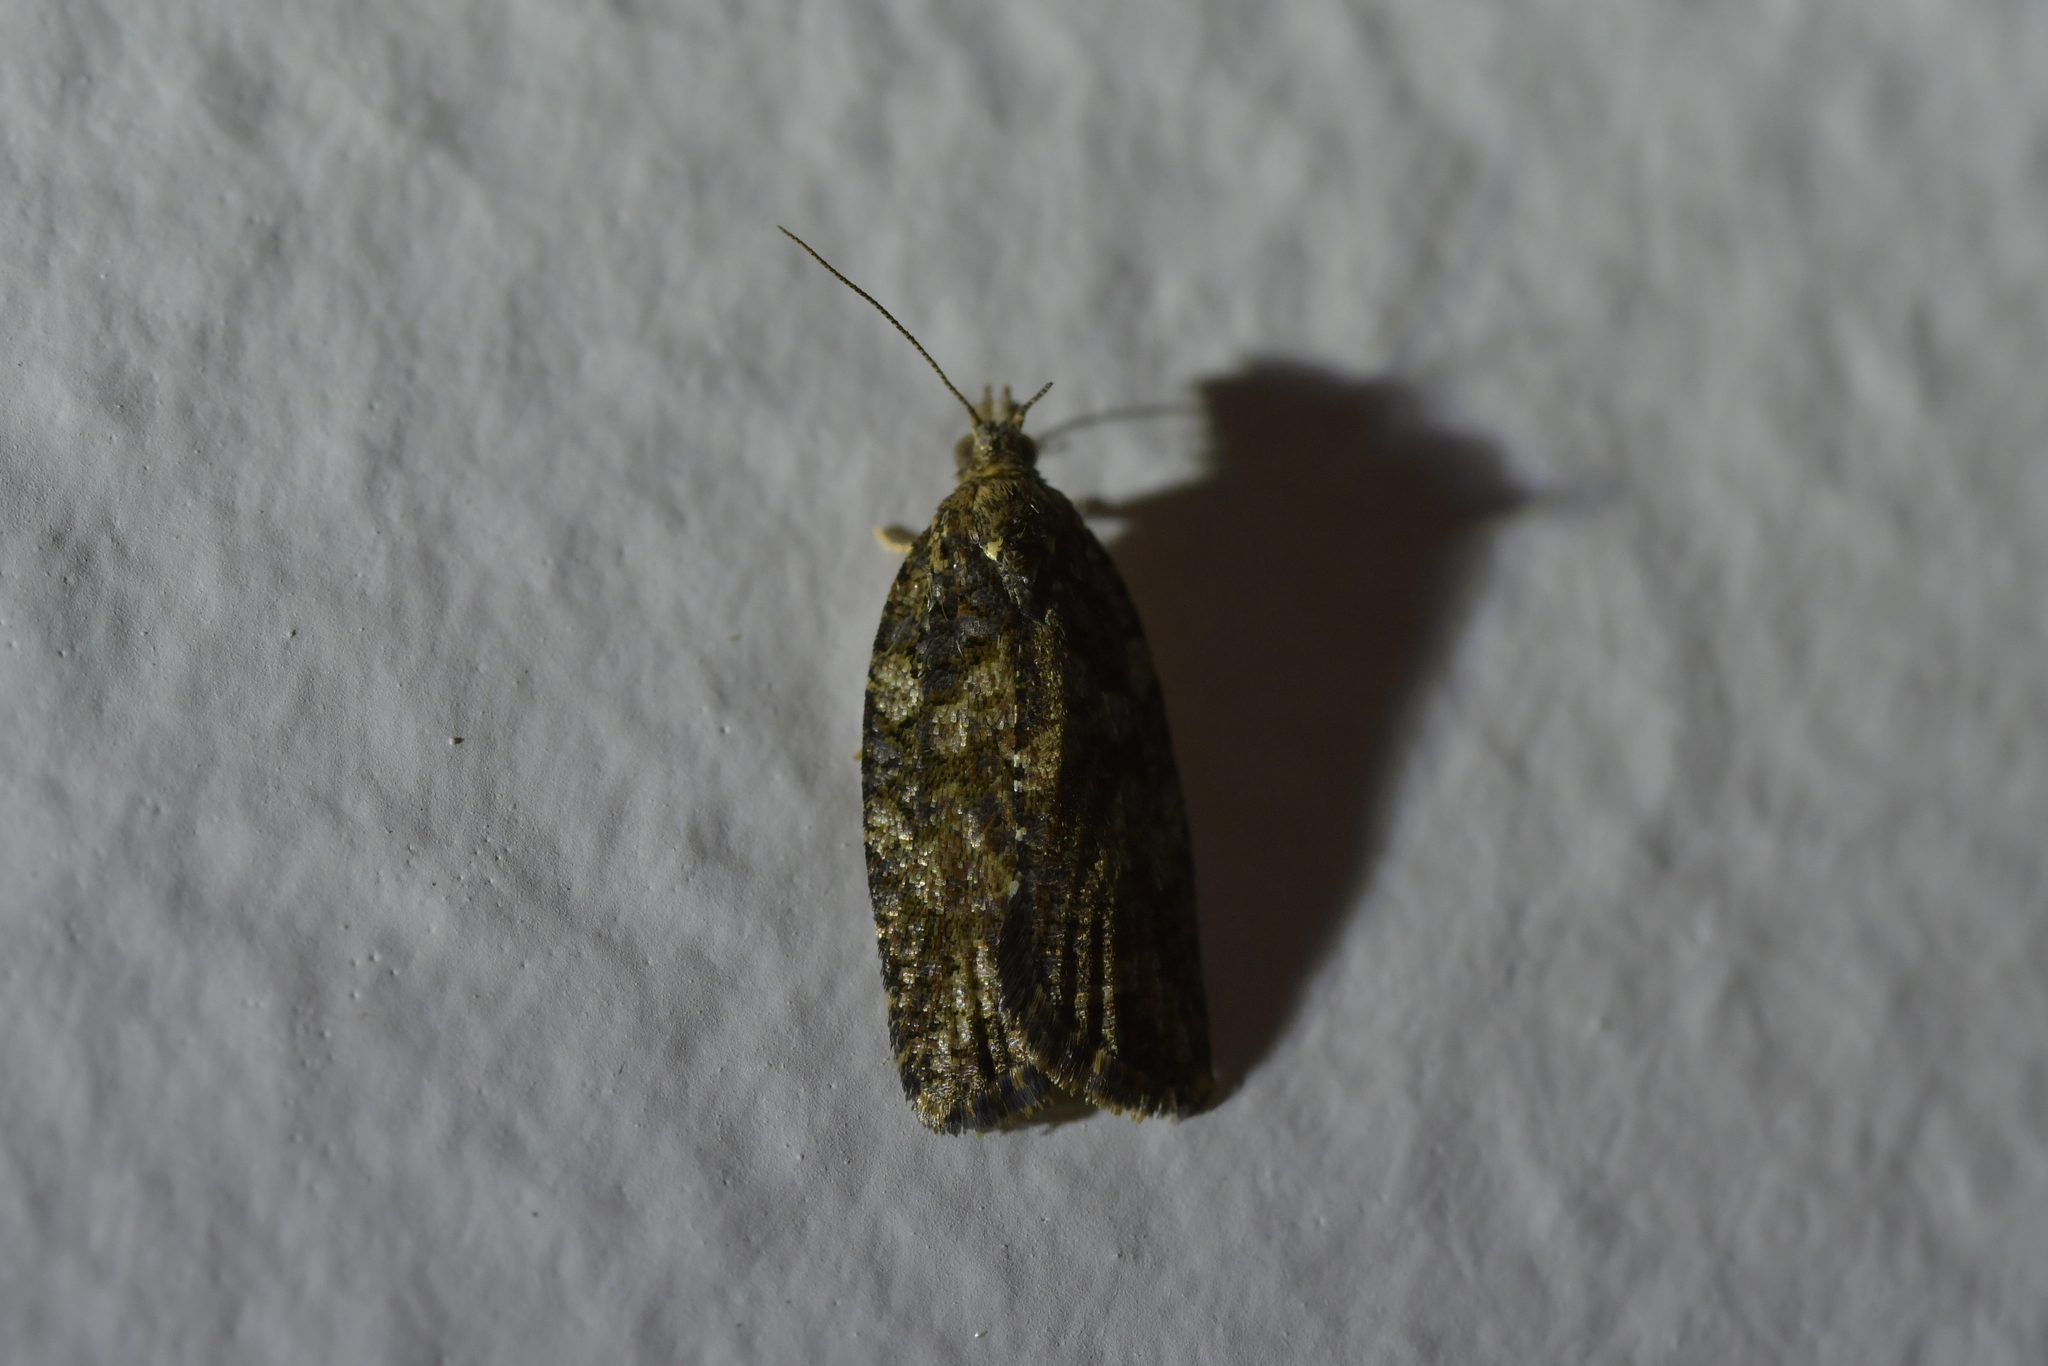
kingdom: Animalia
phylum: Arthropoda
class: Insecta
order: Lepidoptera
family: Tortricidae
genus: Capua
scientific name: Capua intractana
